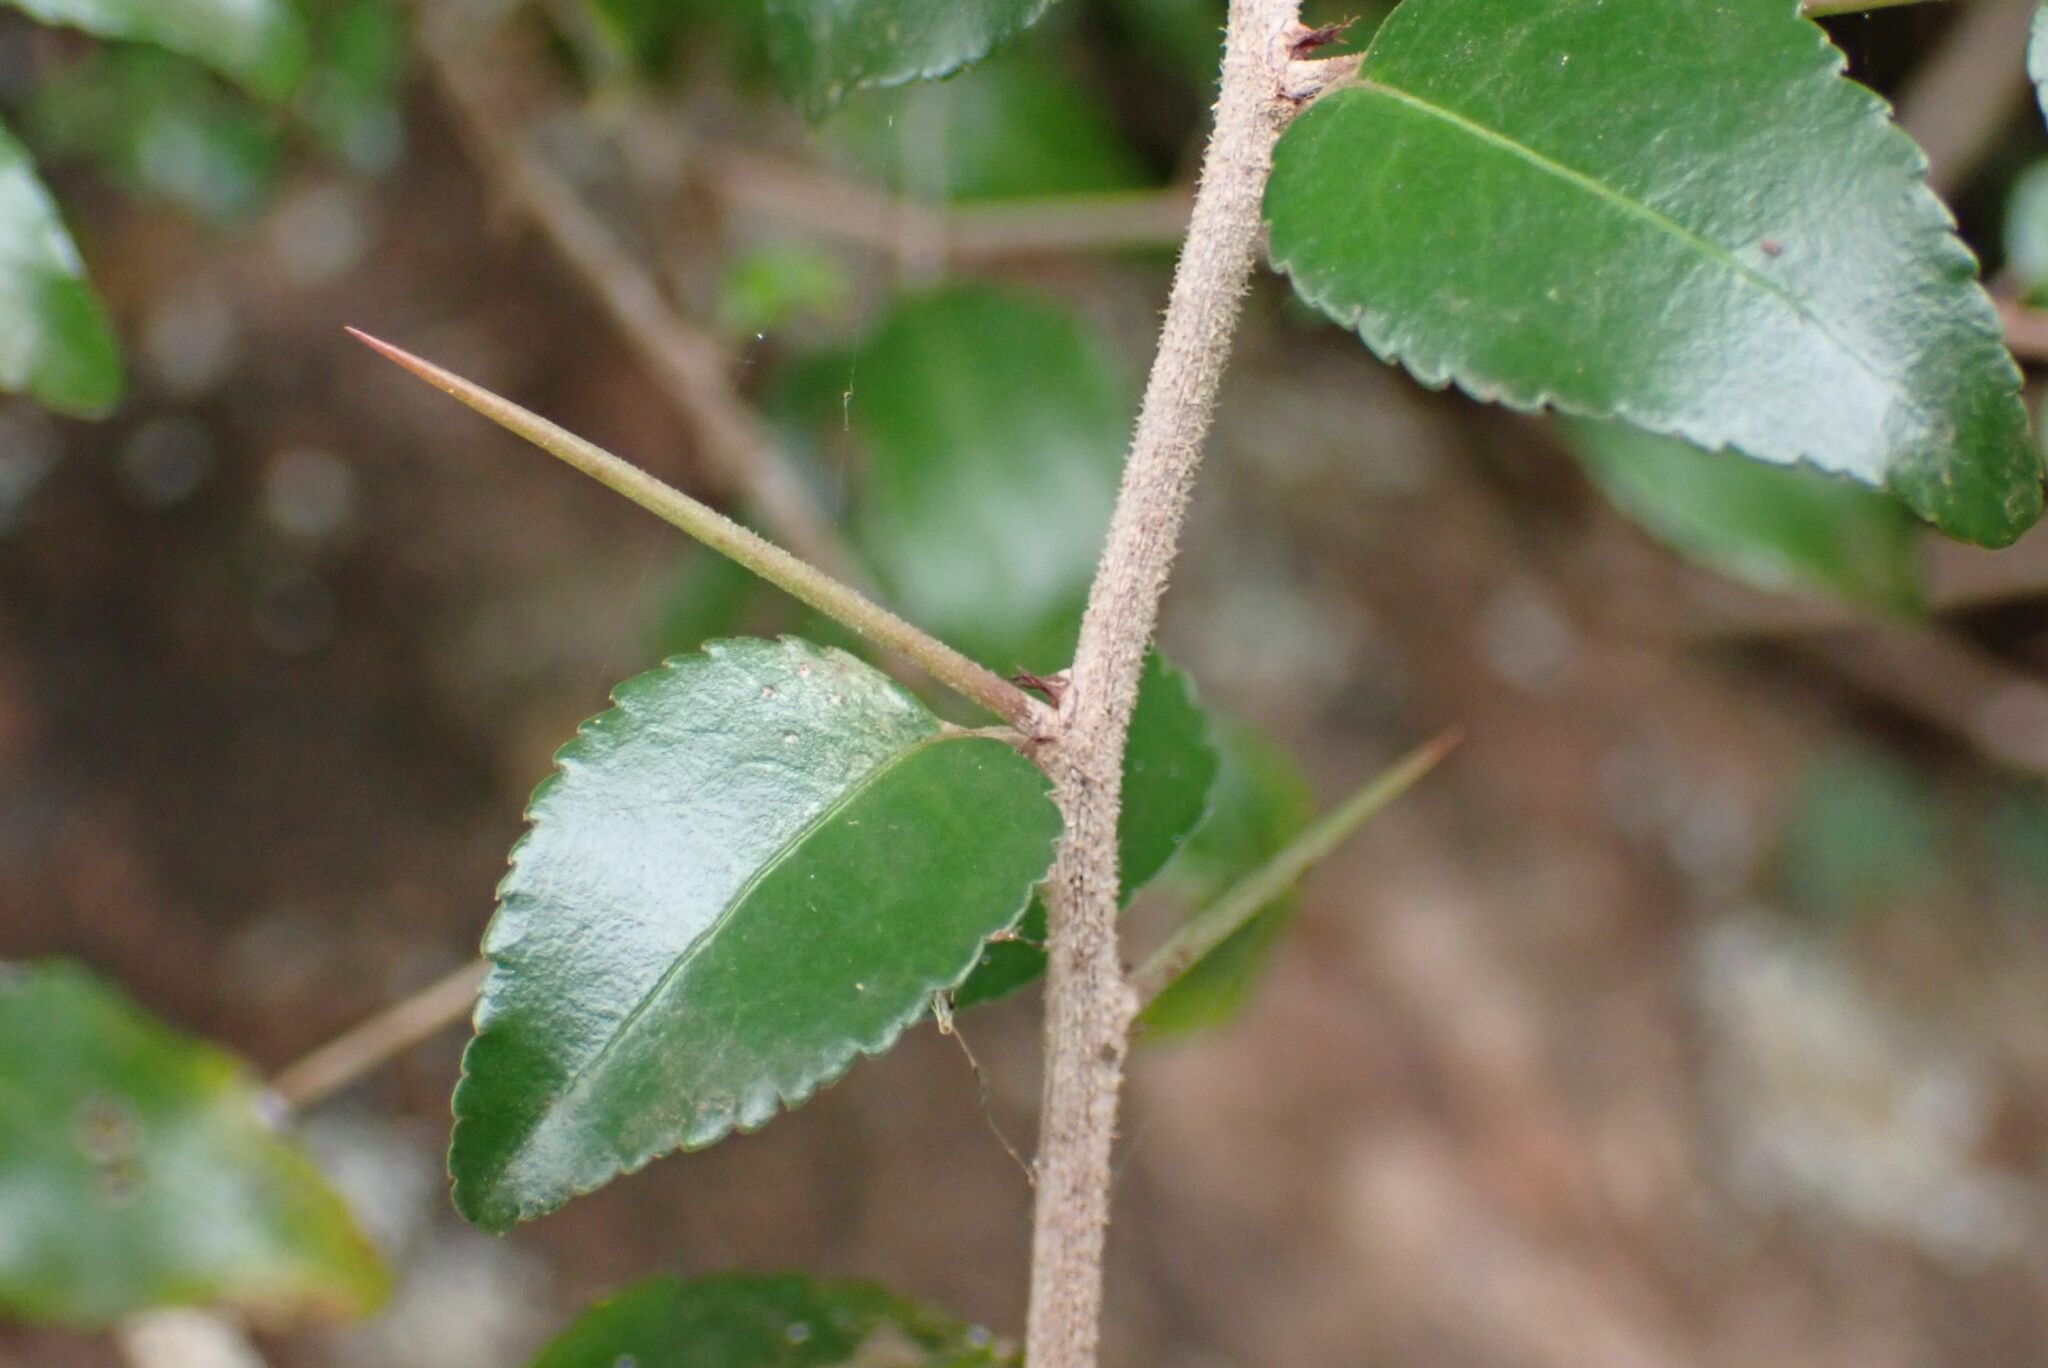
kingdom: Plantae
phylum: Tracheophyta
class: Magnoliopsida
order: Celastrales
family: Celastraceae
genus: Gymnosporia
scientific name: Gymnosporia rubra
